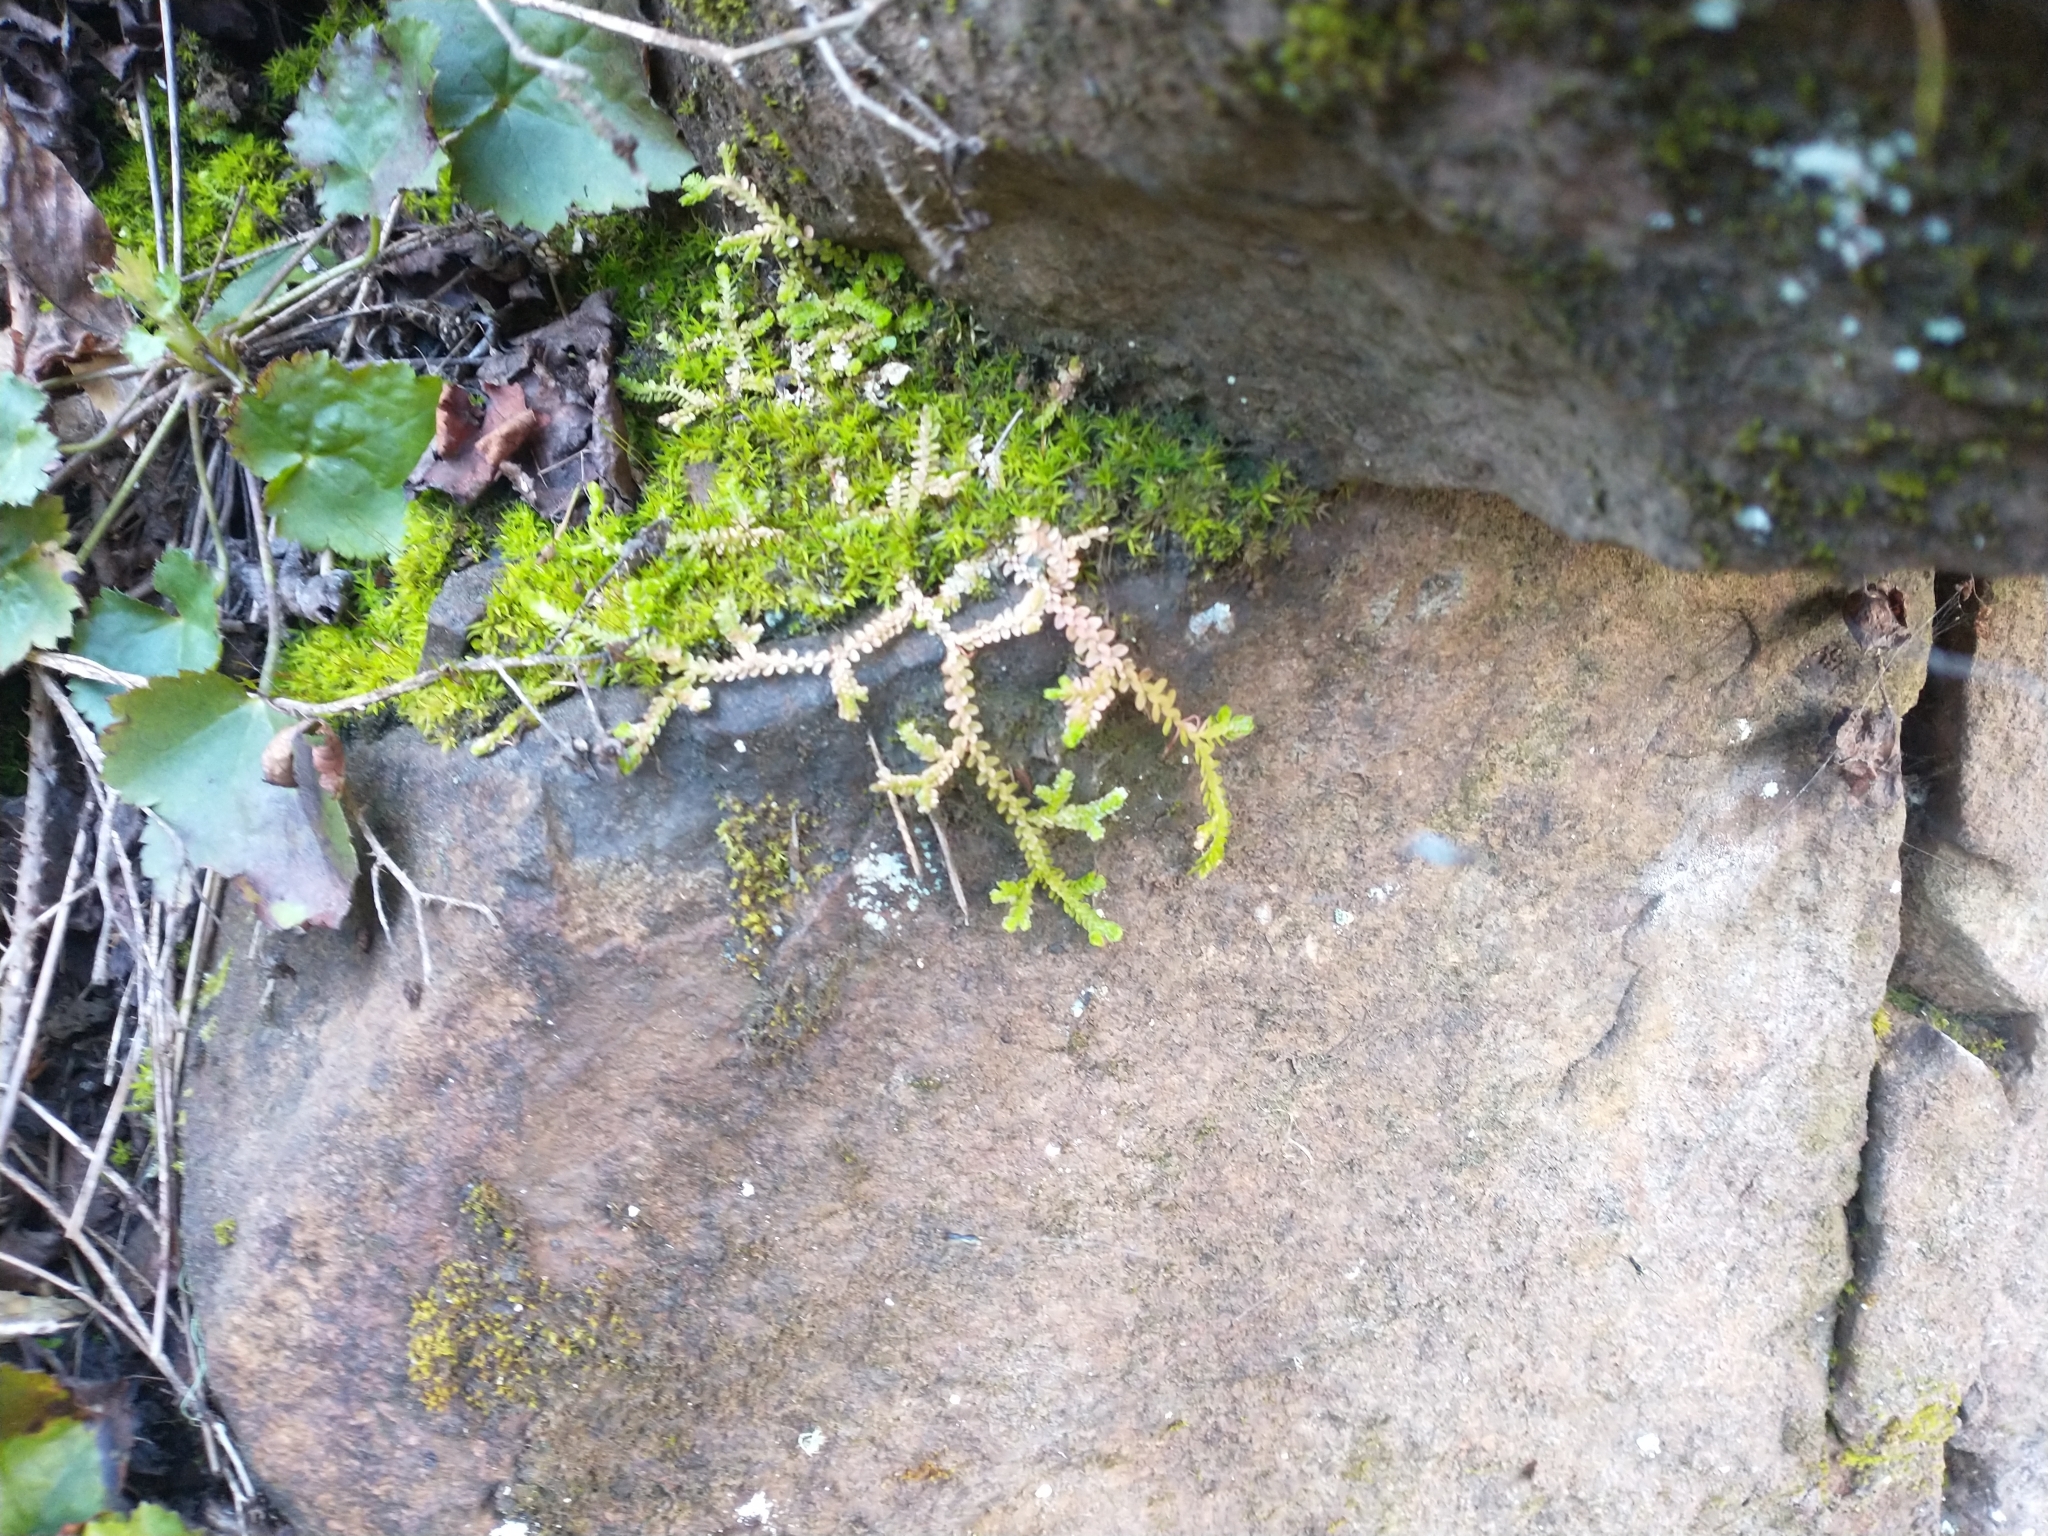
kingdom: Plantae
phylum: Tracheophyta
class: Lycopodiopsida
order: Selaginellales
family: Selaginellaceae
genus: Selaginella
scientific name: Selaginella douglasii
